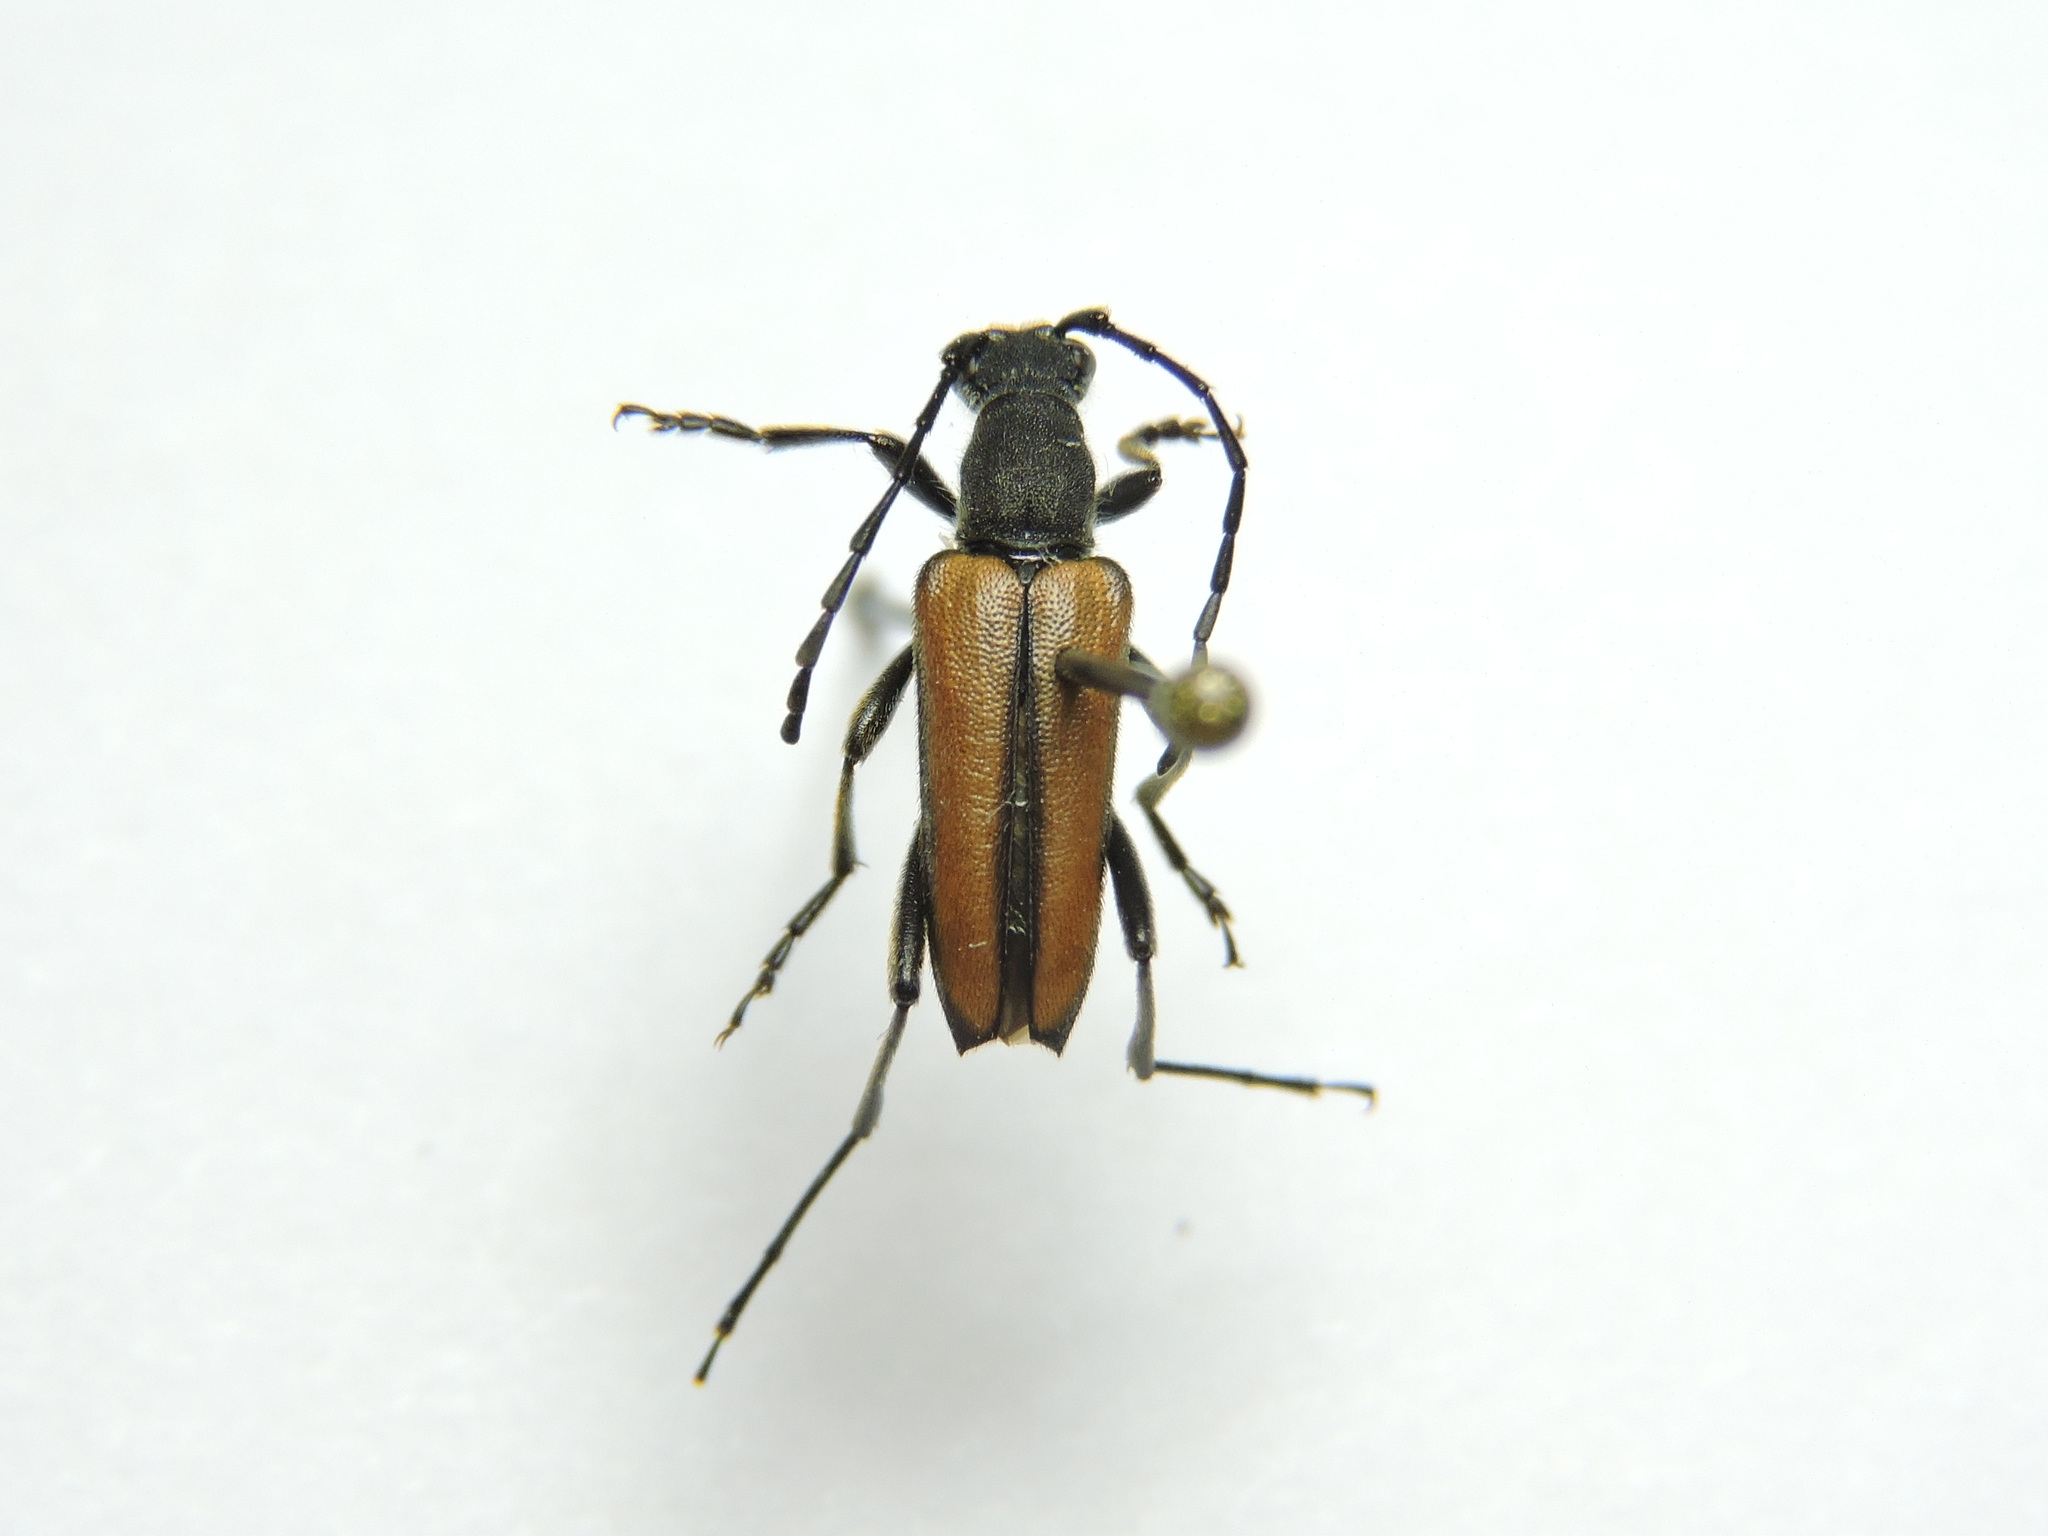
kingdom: Animalia
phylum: Arthropoda
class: Insecta
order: Coleoptera
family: Cerambycidae
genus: Anastrangalia
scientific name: Anastrangalia reyi
